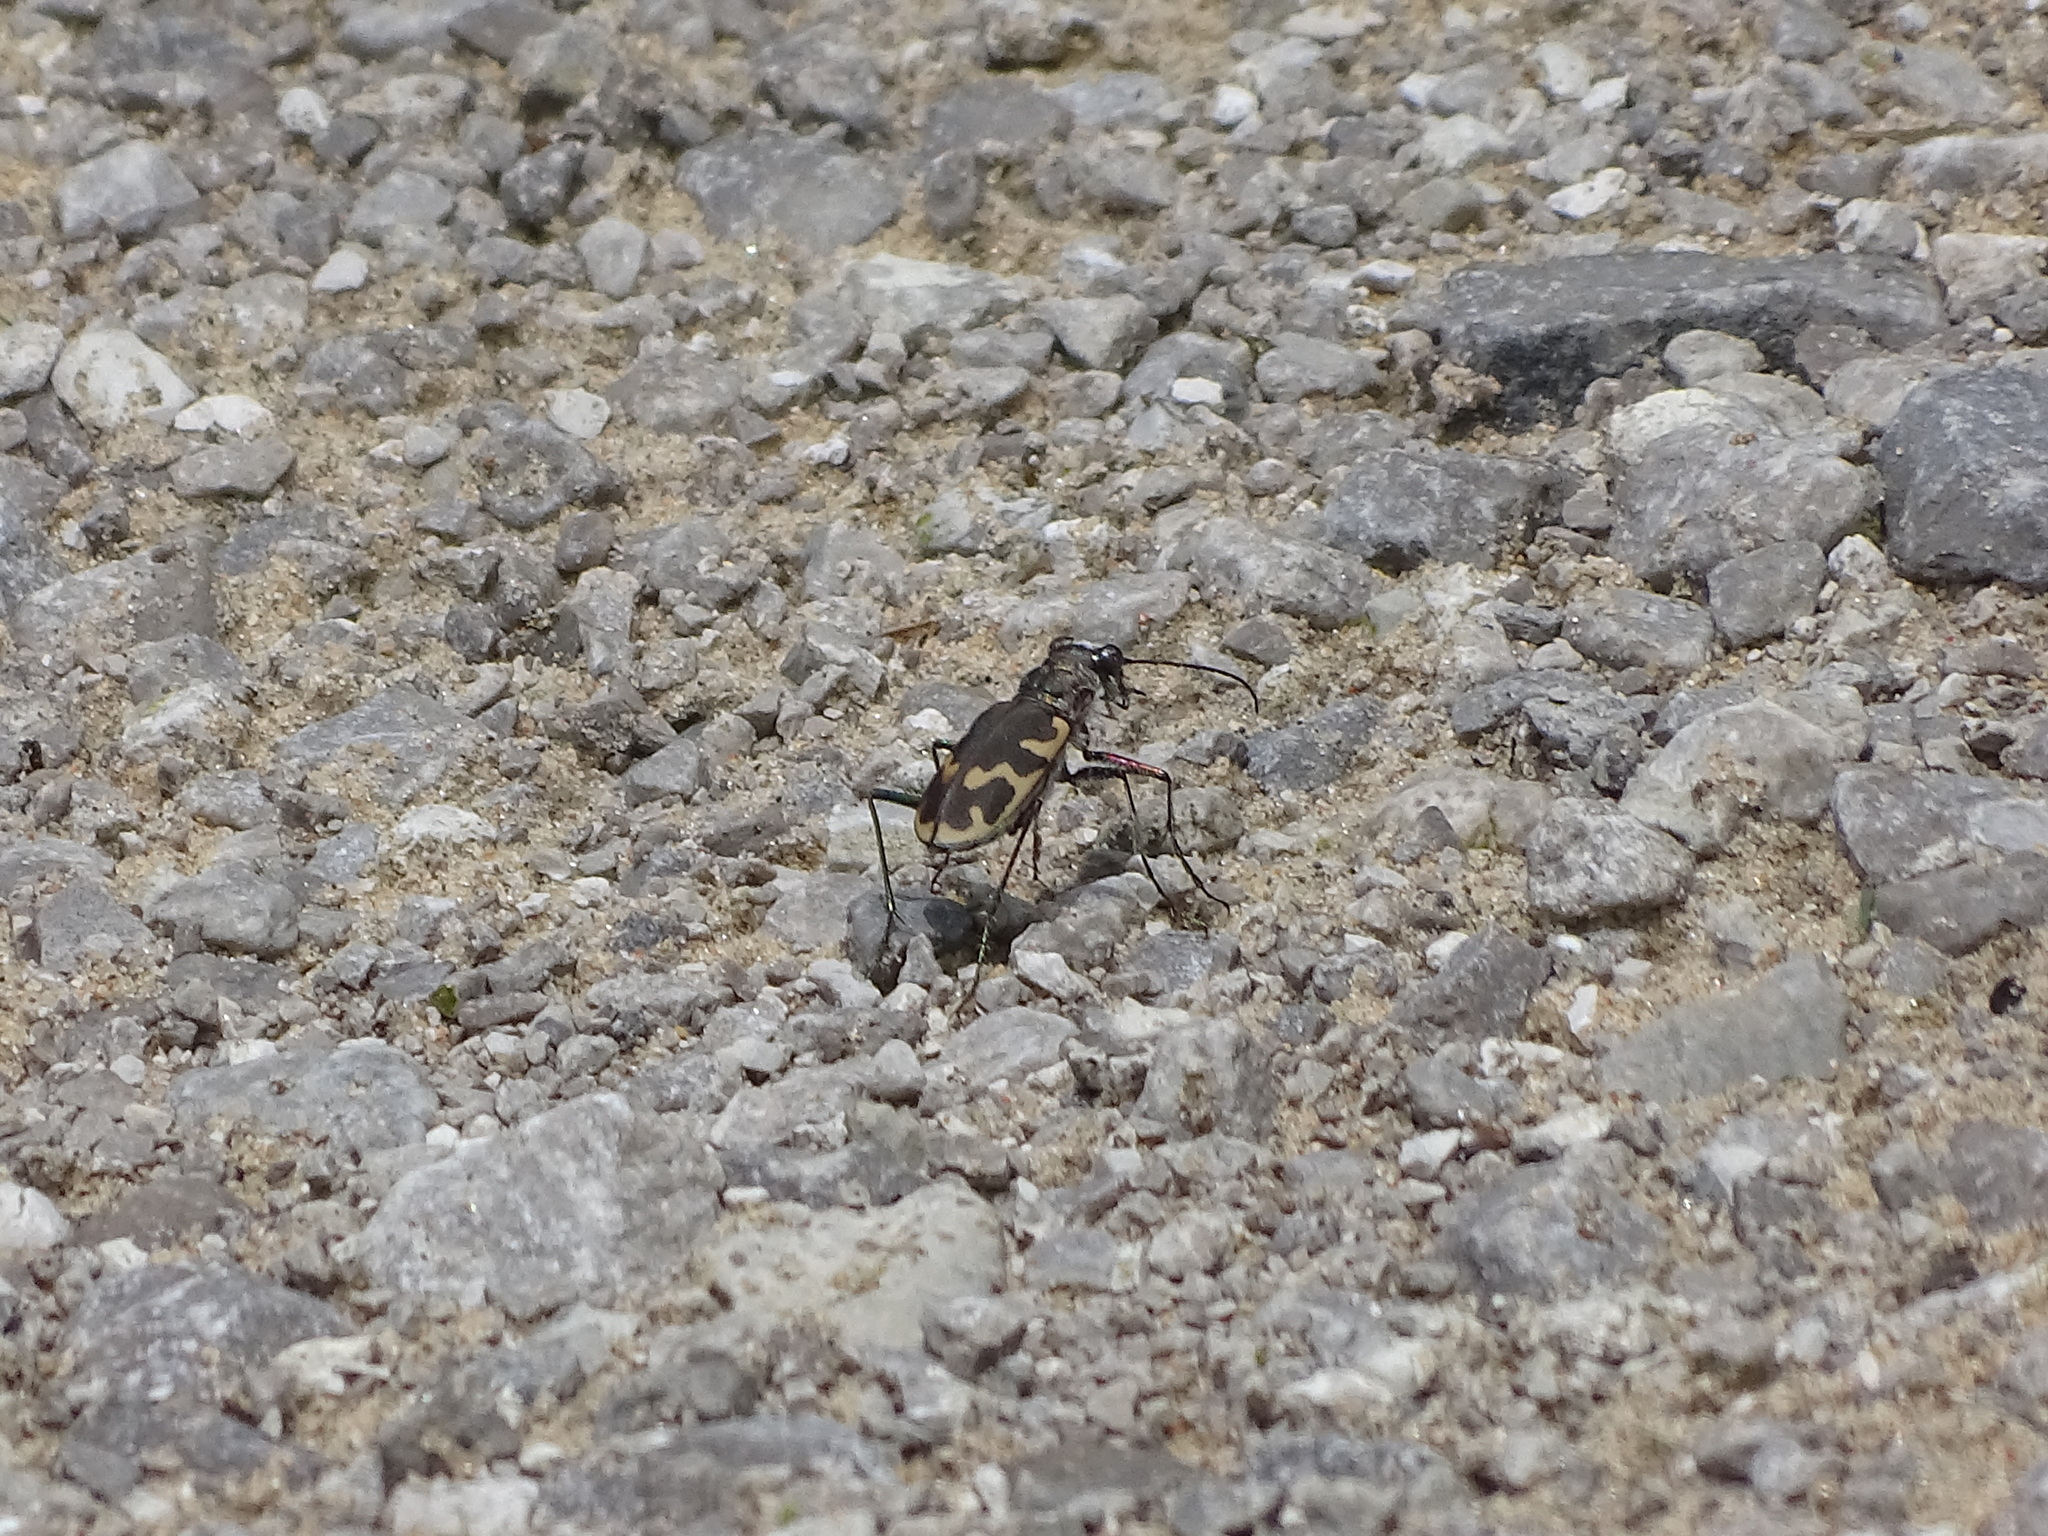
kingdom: Animalia
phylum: Arthropoda
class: Insecta
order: Coleoptera
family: Carabidae
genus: Cicindela
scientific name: Cicindela formosa
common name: Big sand tiger beetle
